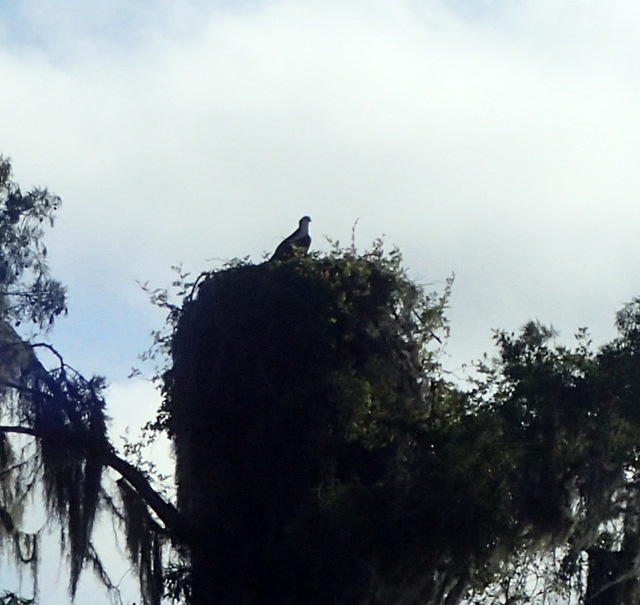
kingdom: Animalia
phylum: Chordata
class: Aves
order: Accipitriformes
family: Pandionidae
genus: Pandion
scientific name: Pandion haliaetus
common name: Osprey
